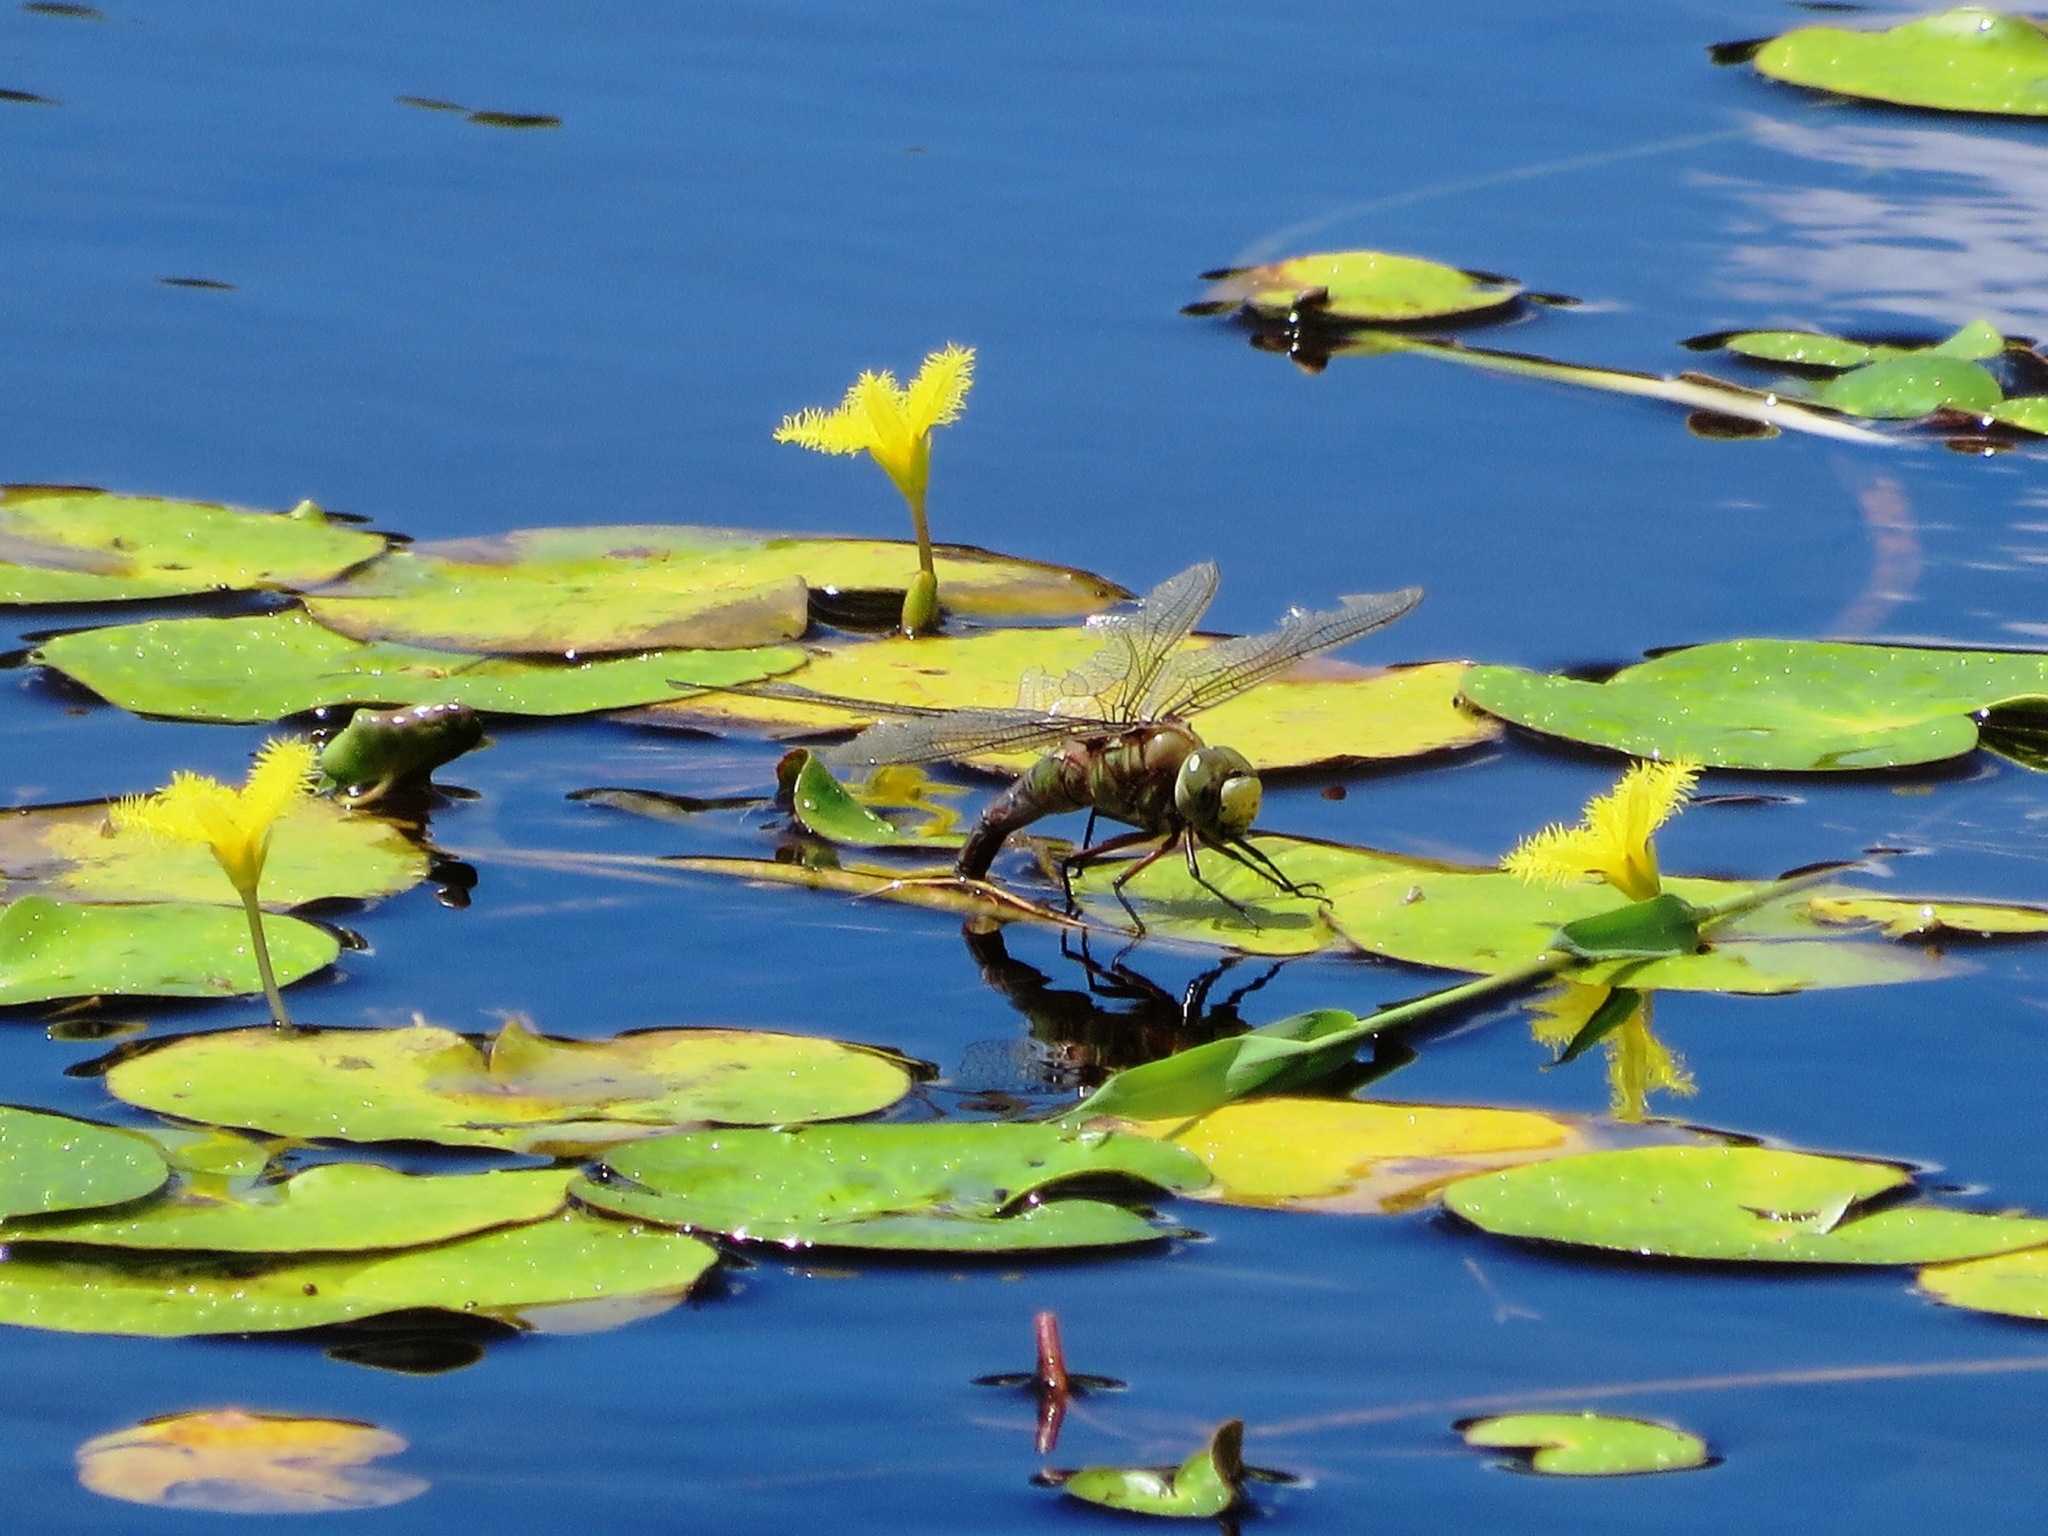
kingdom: Animalia
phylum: Arthropoda
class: Insecta
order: Odonata
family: Aeshnidae
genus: Anax
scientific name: Anax imperator
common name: Emperor dragonfly
